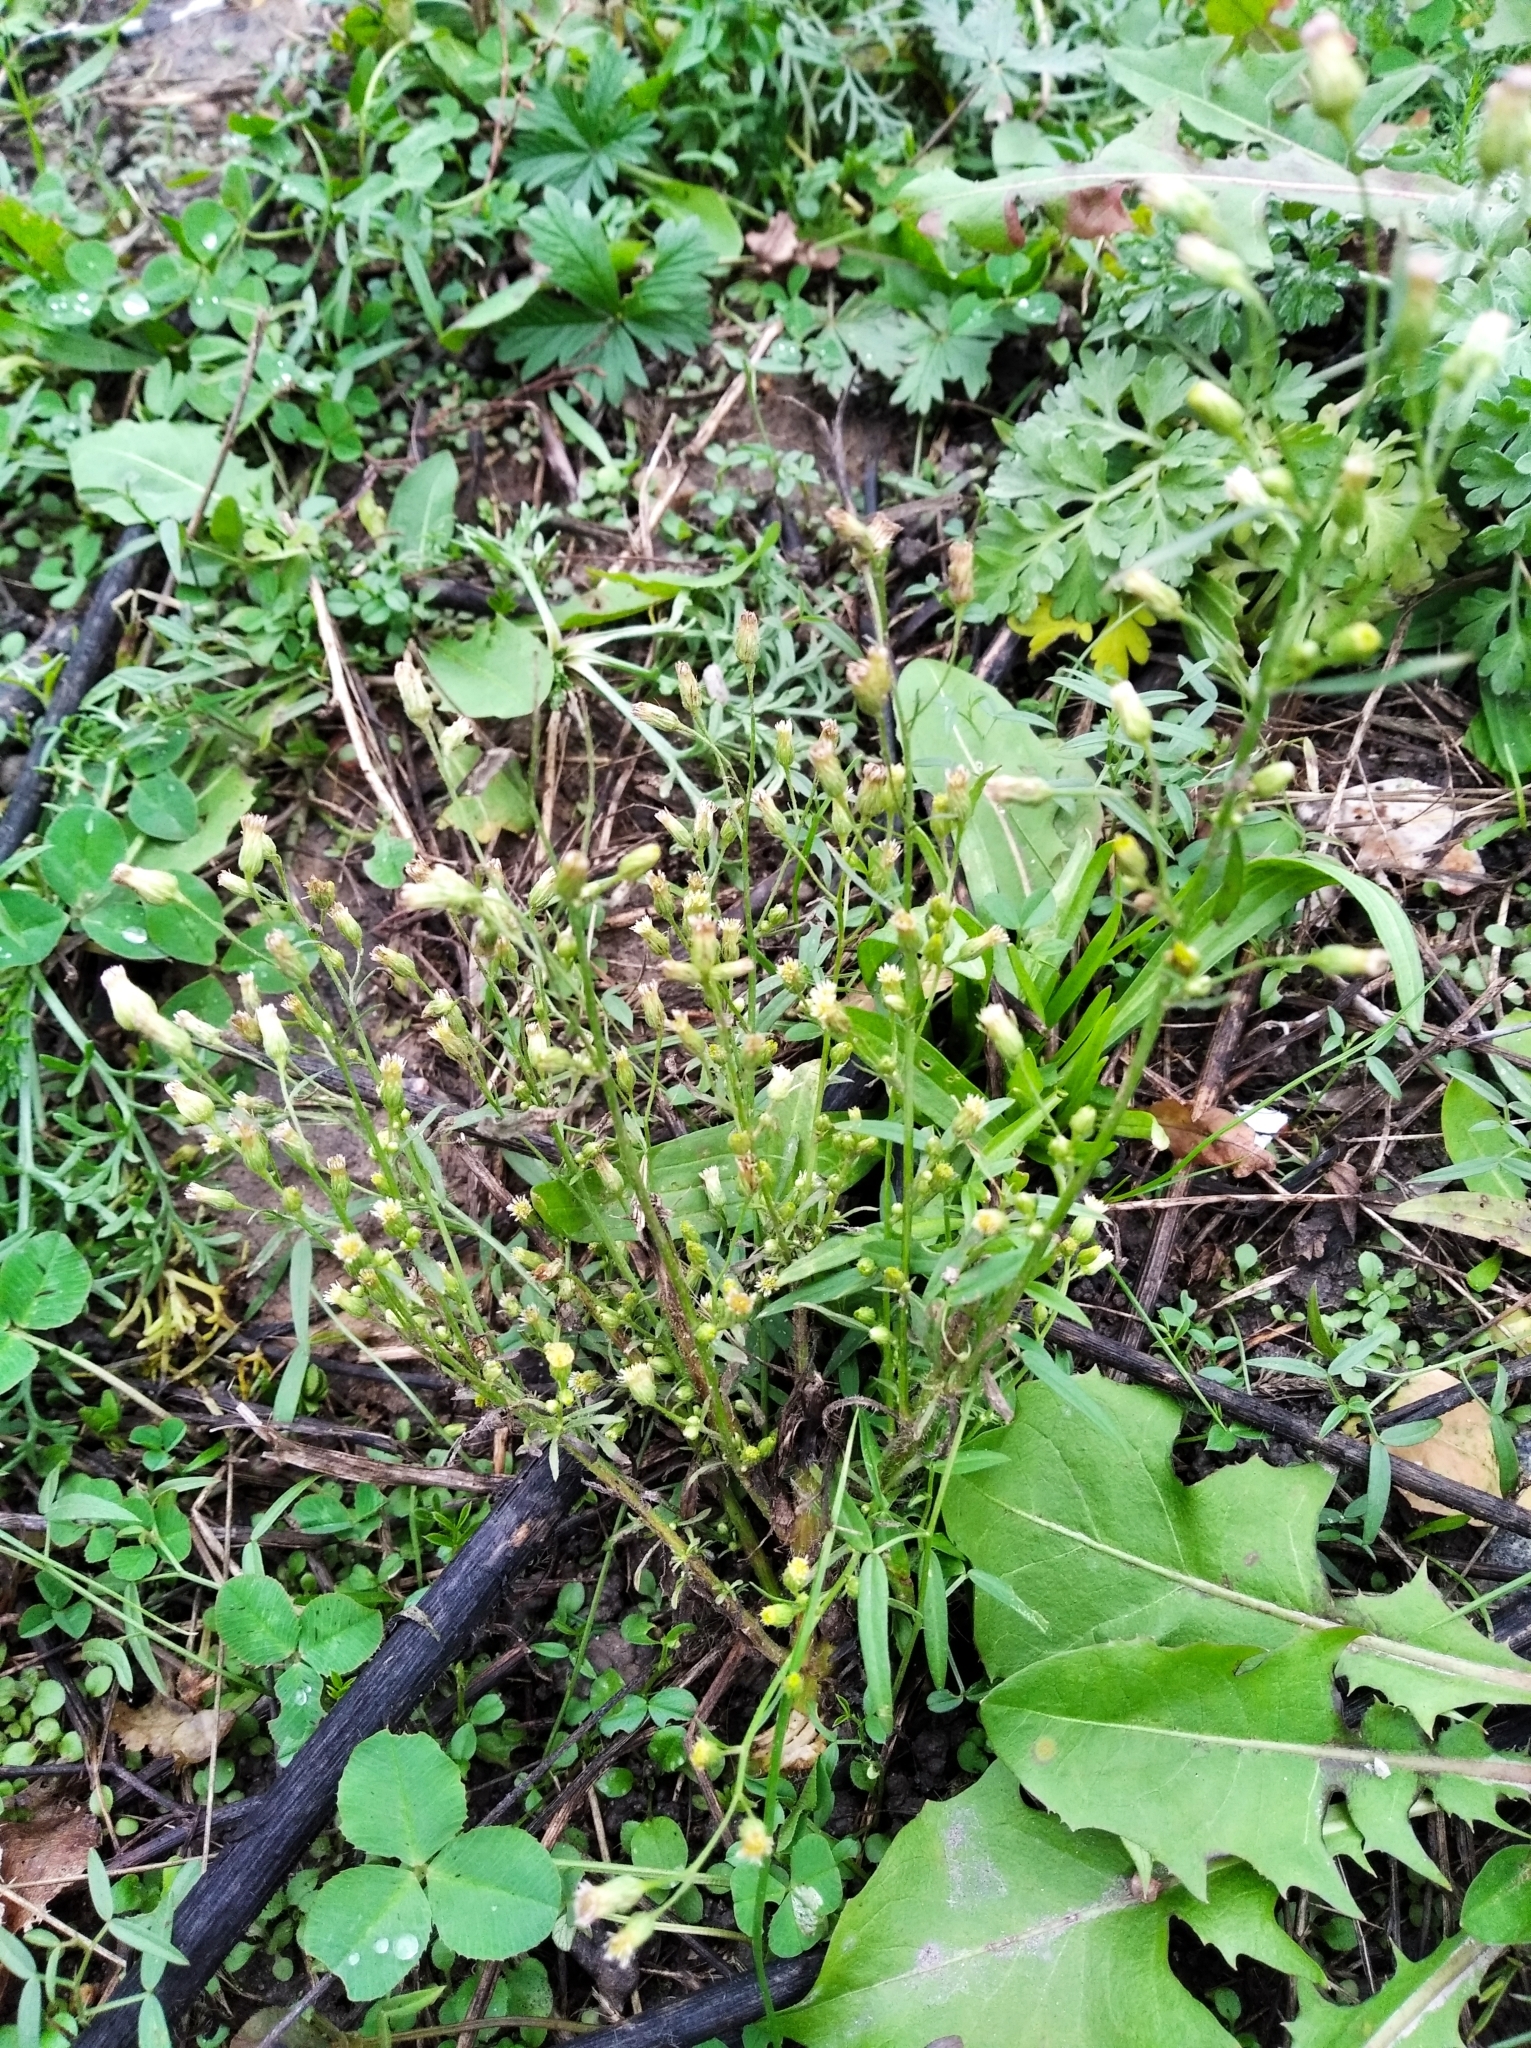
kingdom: Plantae
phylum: Tracheophyta
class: Magnoliopsida
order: Asterales
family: Asteraceae
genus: Erigeron
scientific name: Erigeron canadensis
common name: Canadian fleabane
